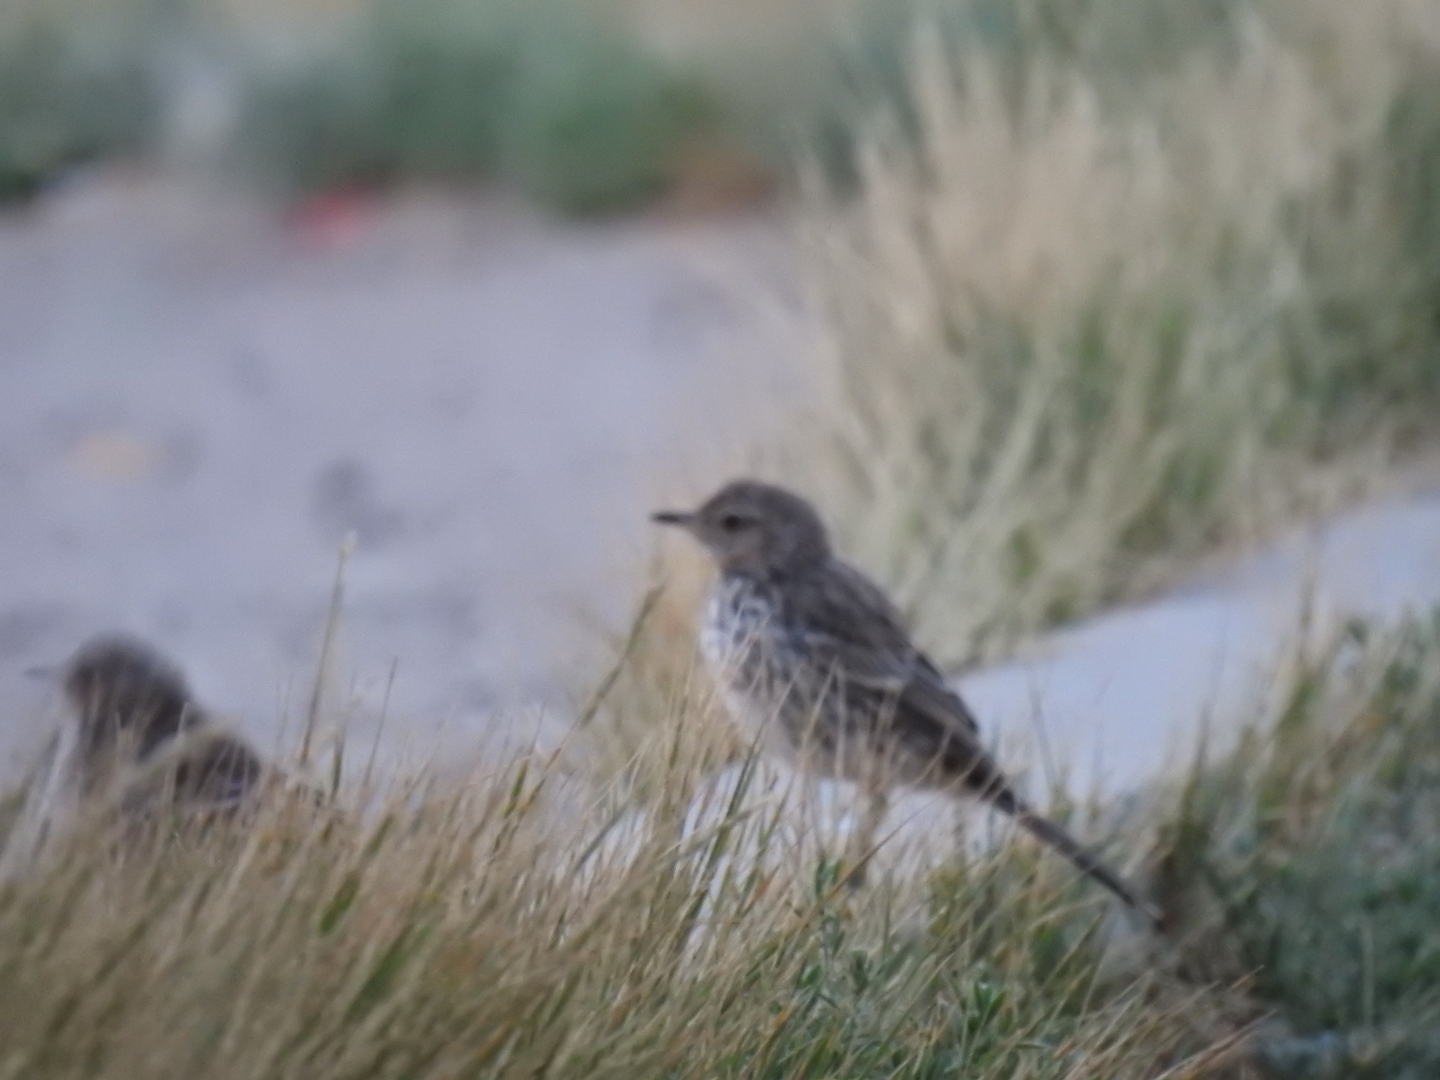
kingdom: Animalia
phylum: Chordata
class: Aves
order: Passeriformes
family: Mimidae
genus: Oreoscoptes
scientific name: Oreoscoptes montanus
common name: Sage thrasher
